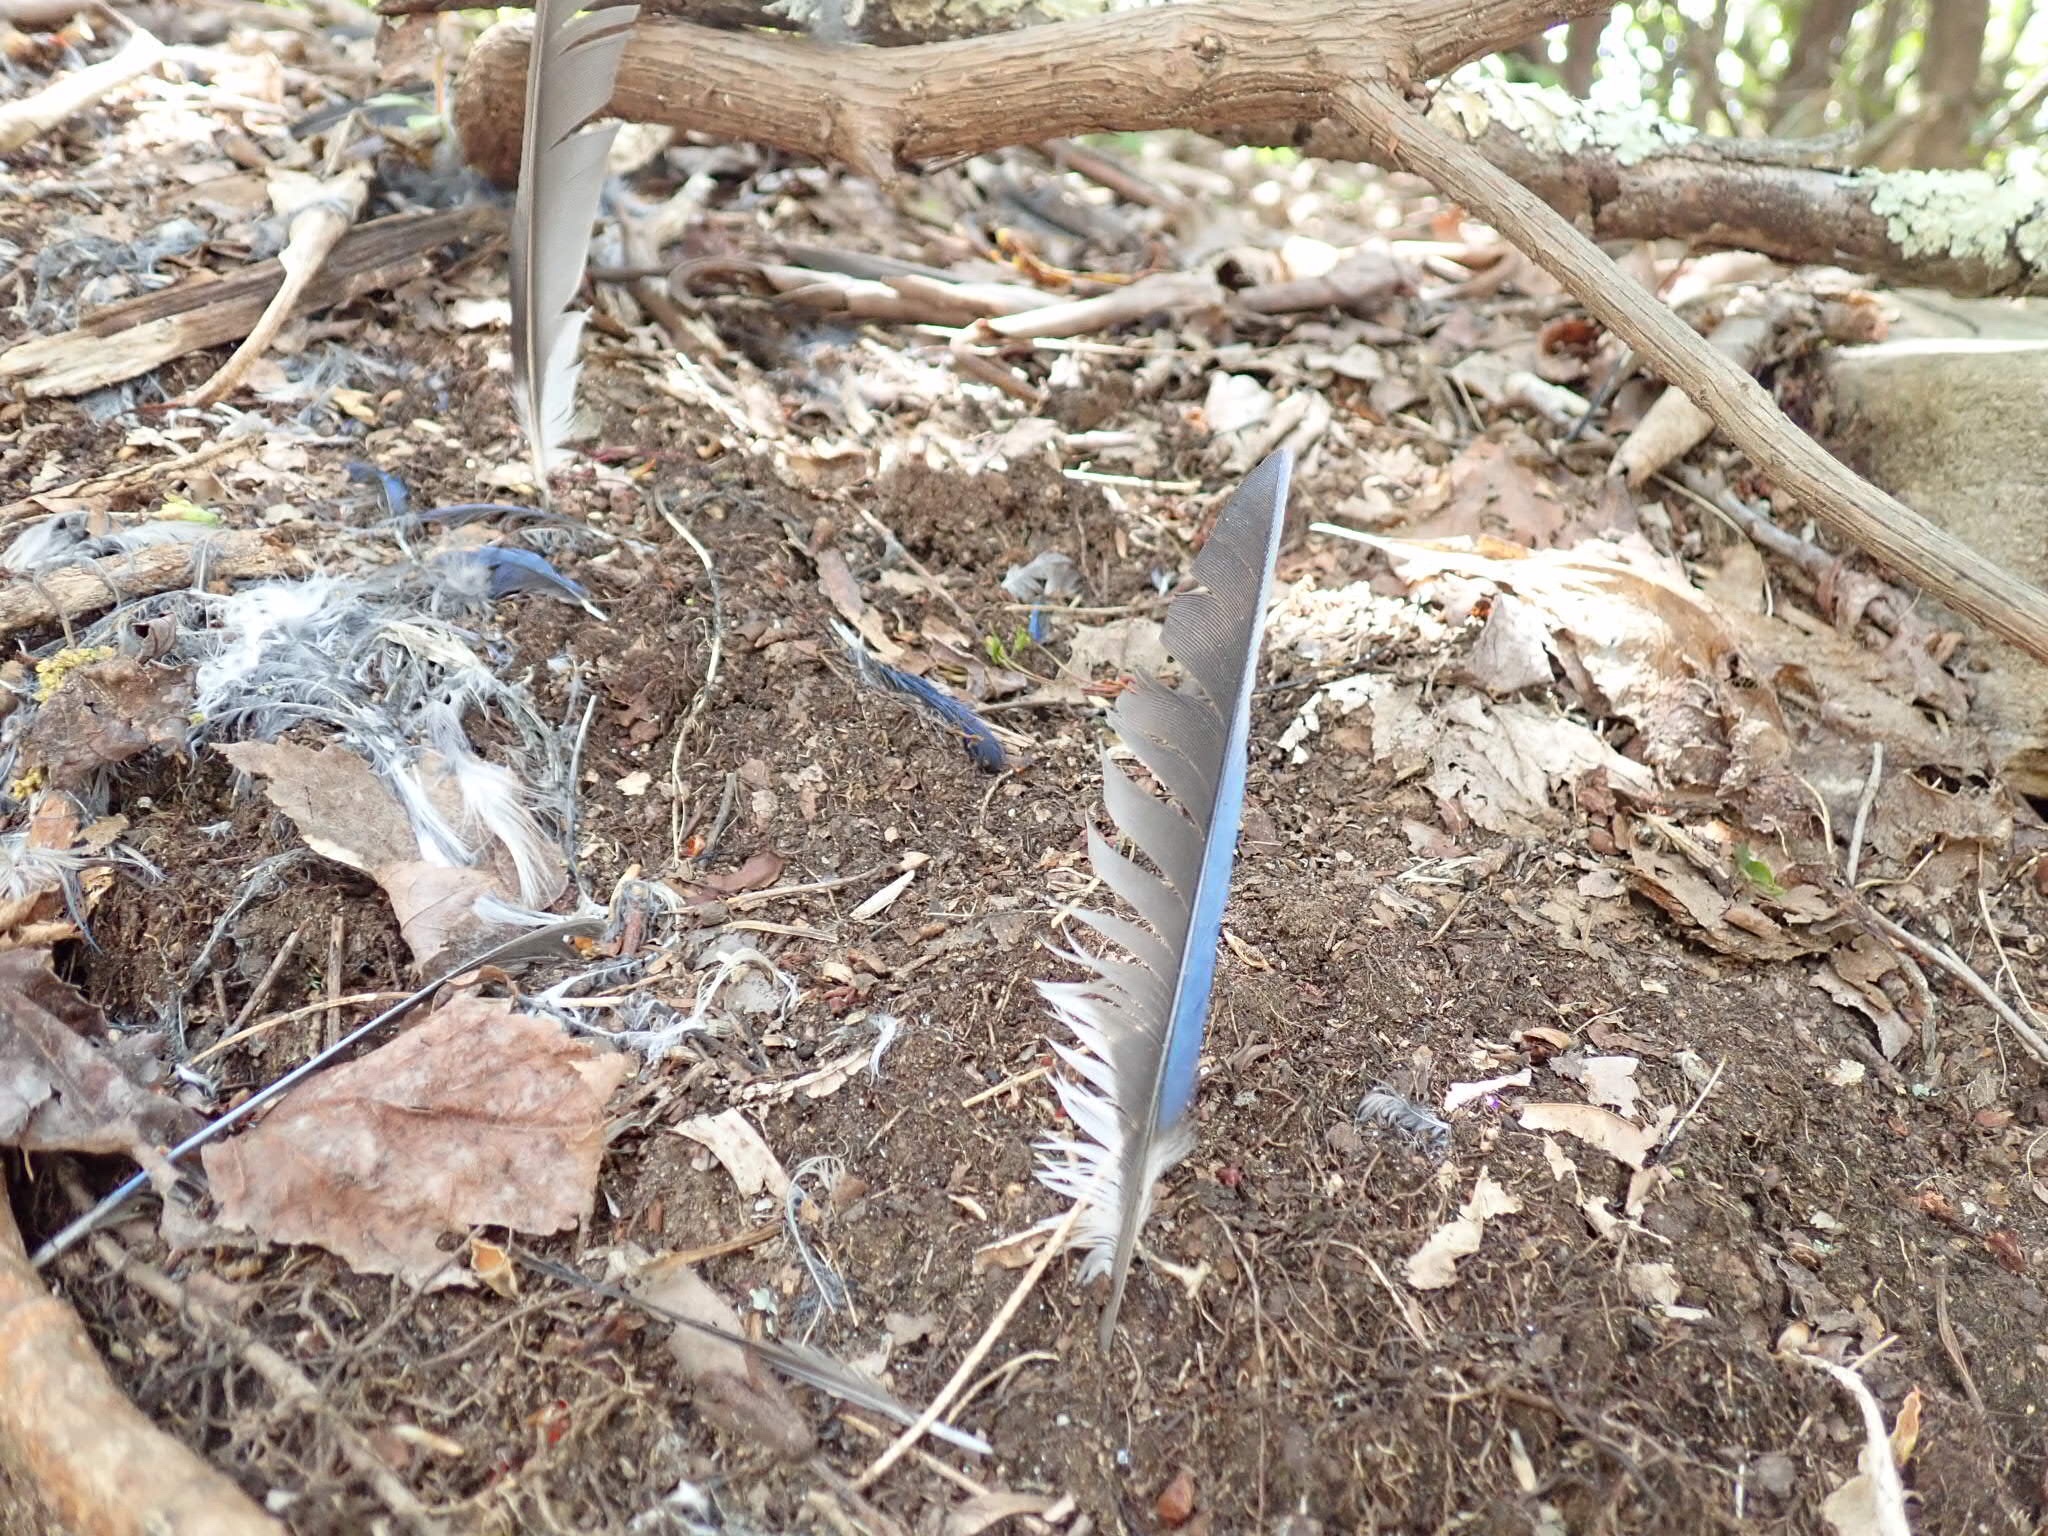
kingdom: Animalia
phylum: Chordata
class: Aves
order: Passeriformes
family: Corvidae
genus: Cyanocitta
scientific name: Cyanocitta cristata
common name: Blue jay
